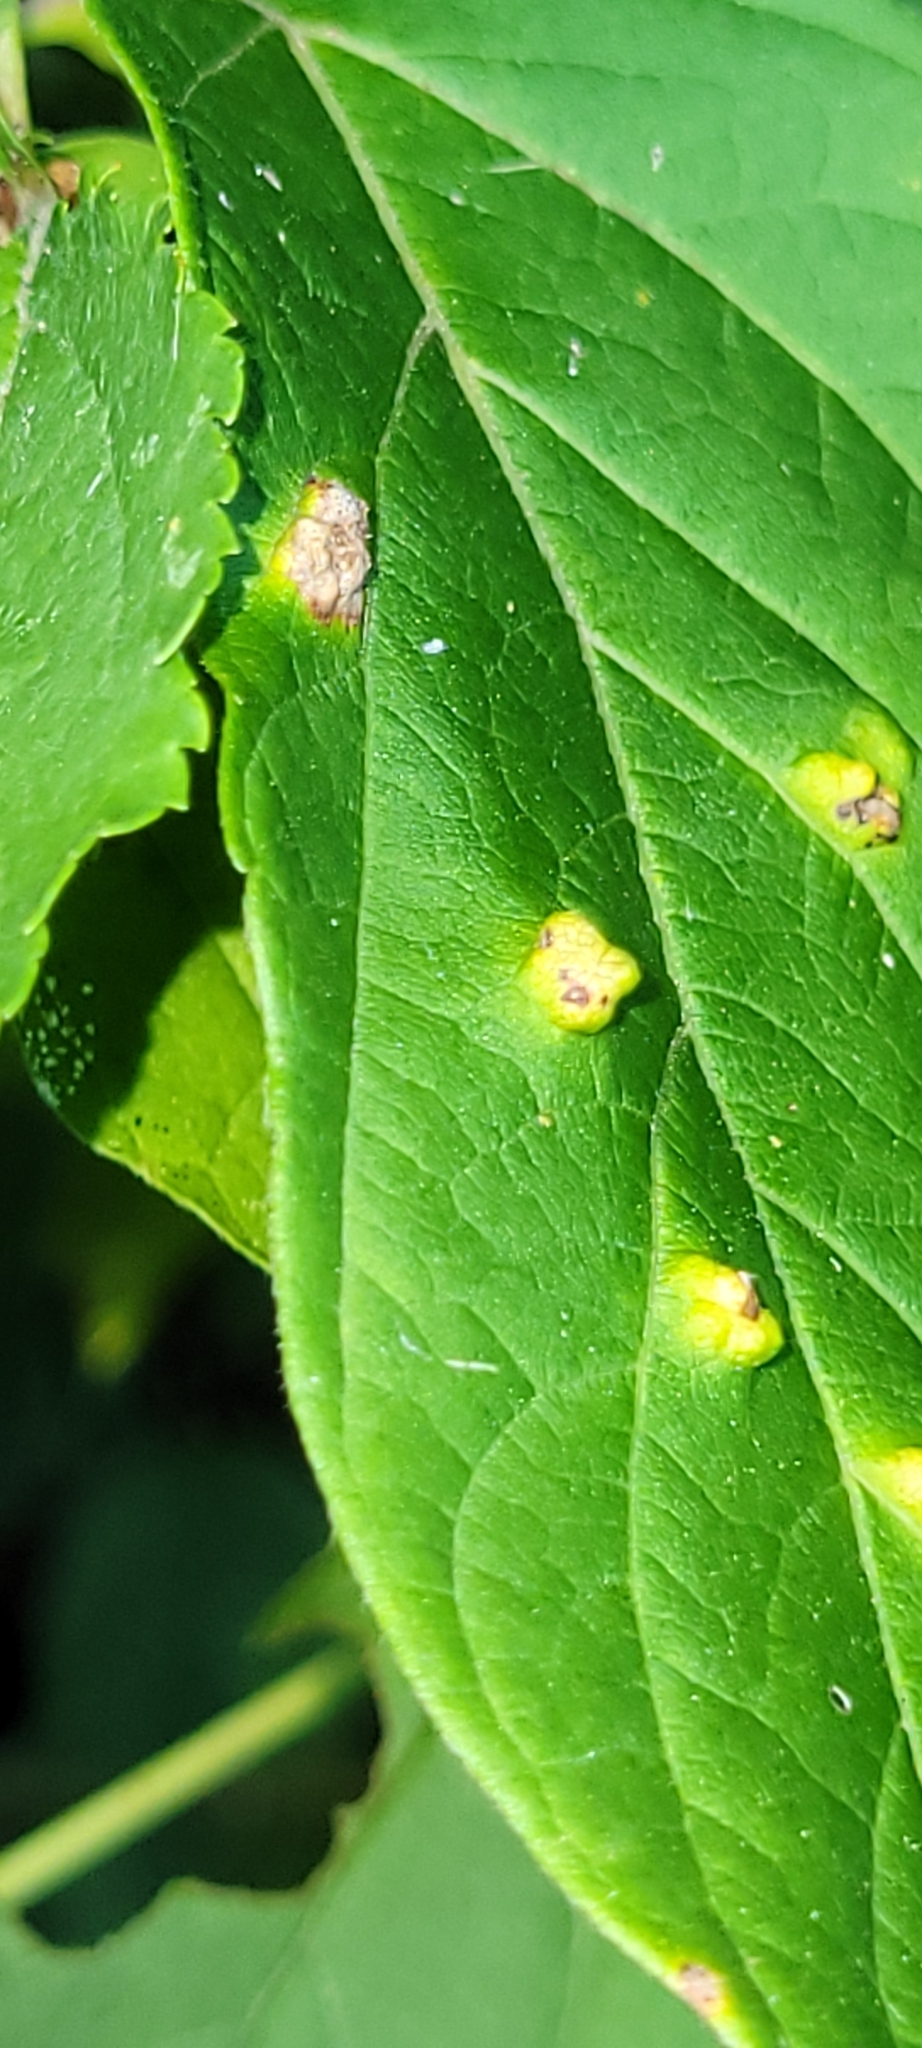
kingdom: Animalia
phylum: Arthropoda
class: Arachnida
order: Trombidiformes
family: Eriophyidae
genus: Aceria
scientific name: Aceria
